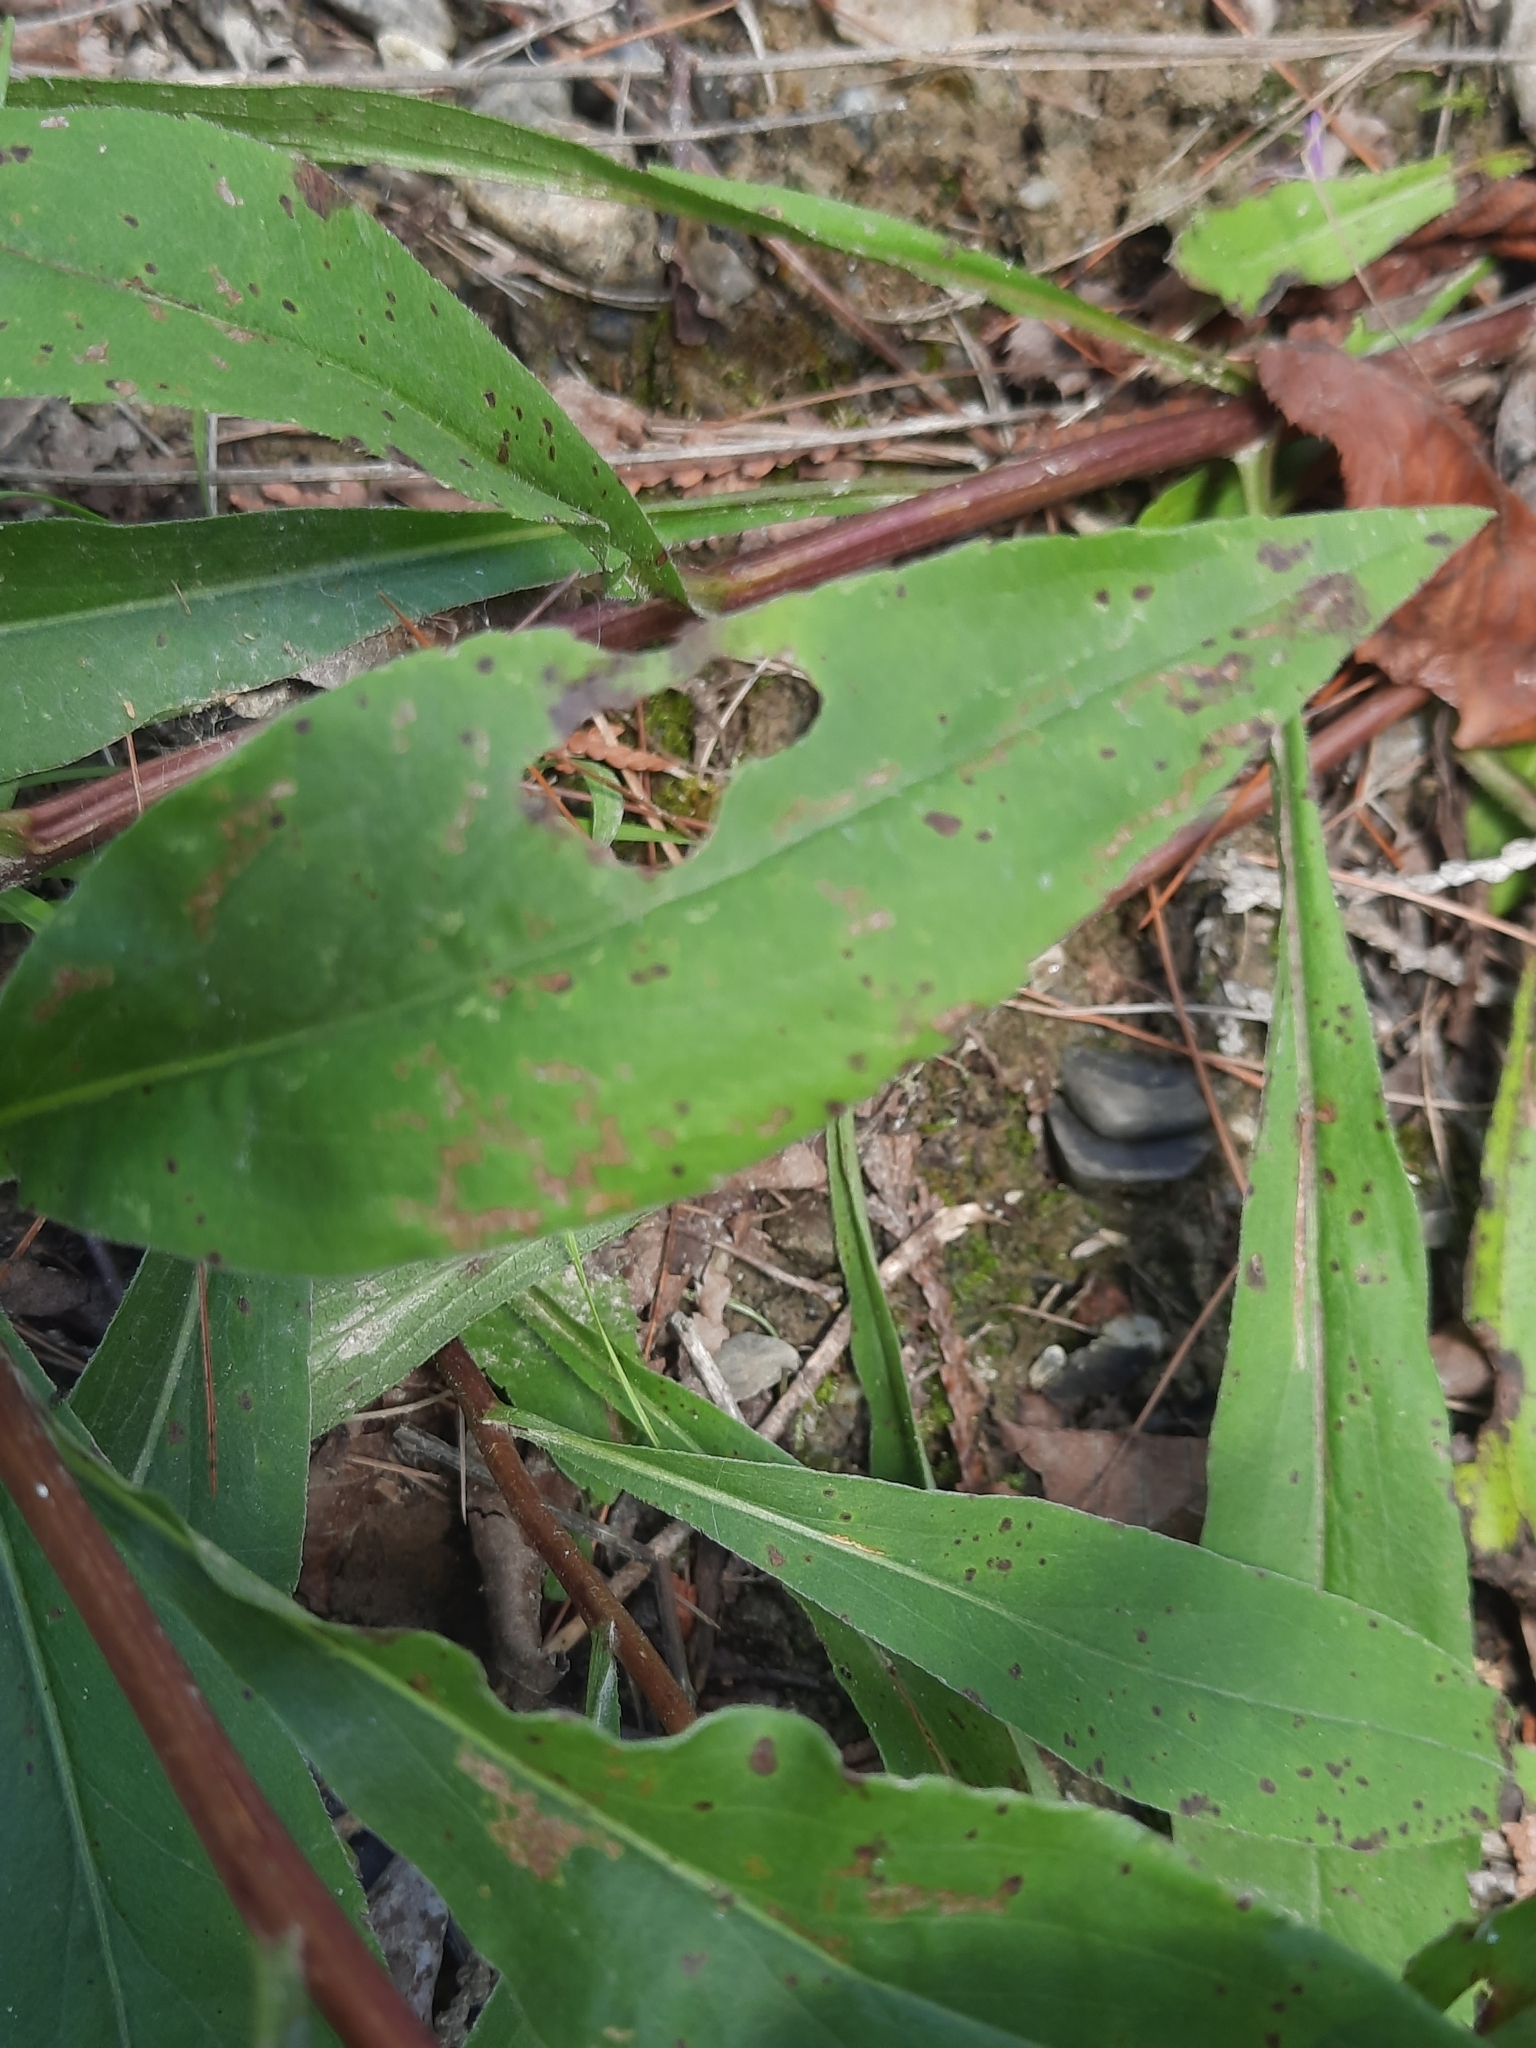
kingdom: Plantae
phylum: Tracheophyta
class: Magnoliopsida
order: Asterales
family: Asteraceae
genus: Solidago
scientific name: Solidago juncea
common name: Early goldenrod
